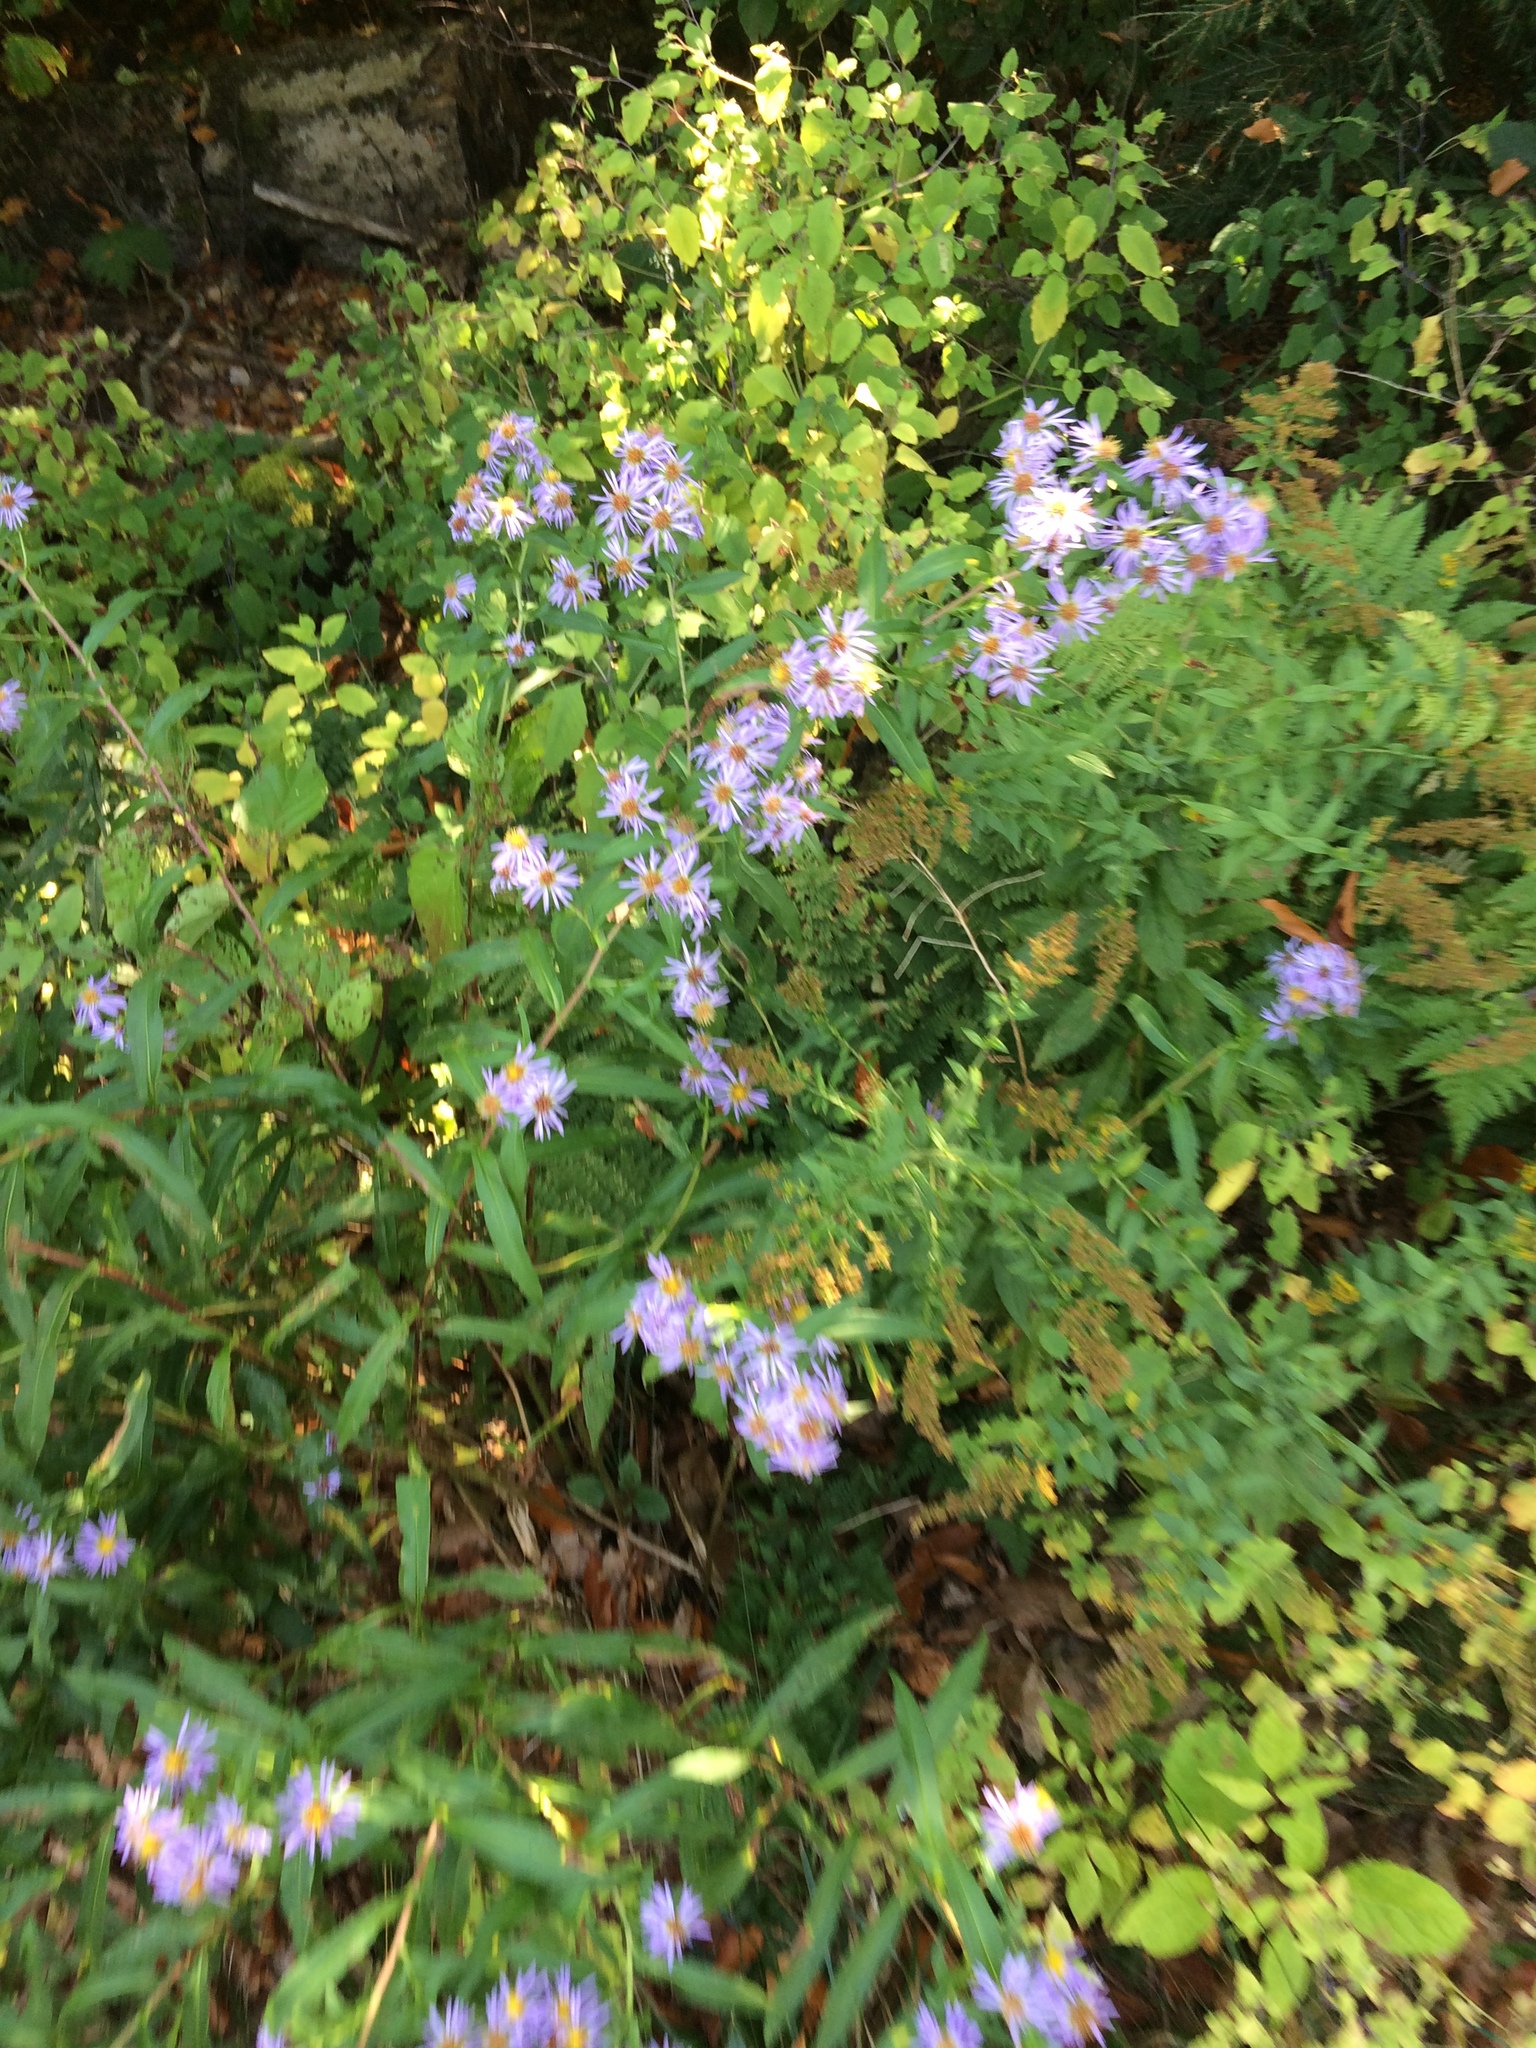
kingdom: Plantae
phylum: Tracheophyta
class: Magnoliopsida
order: Asterales
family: Asteraceae
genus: Symphyotrichum
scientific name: Symphyotrichum puniceum
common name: Bog aster
